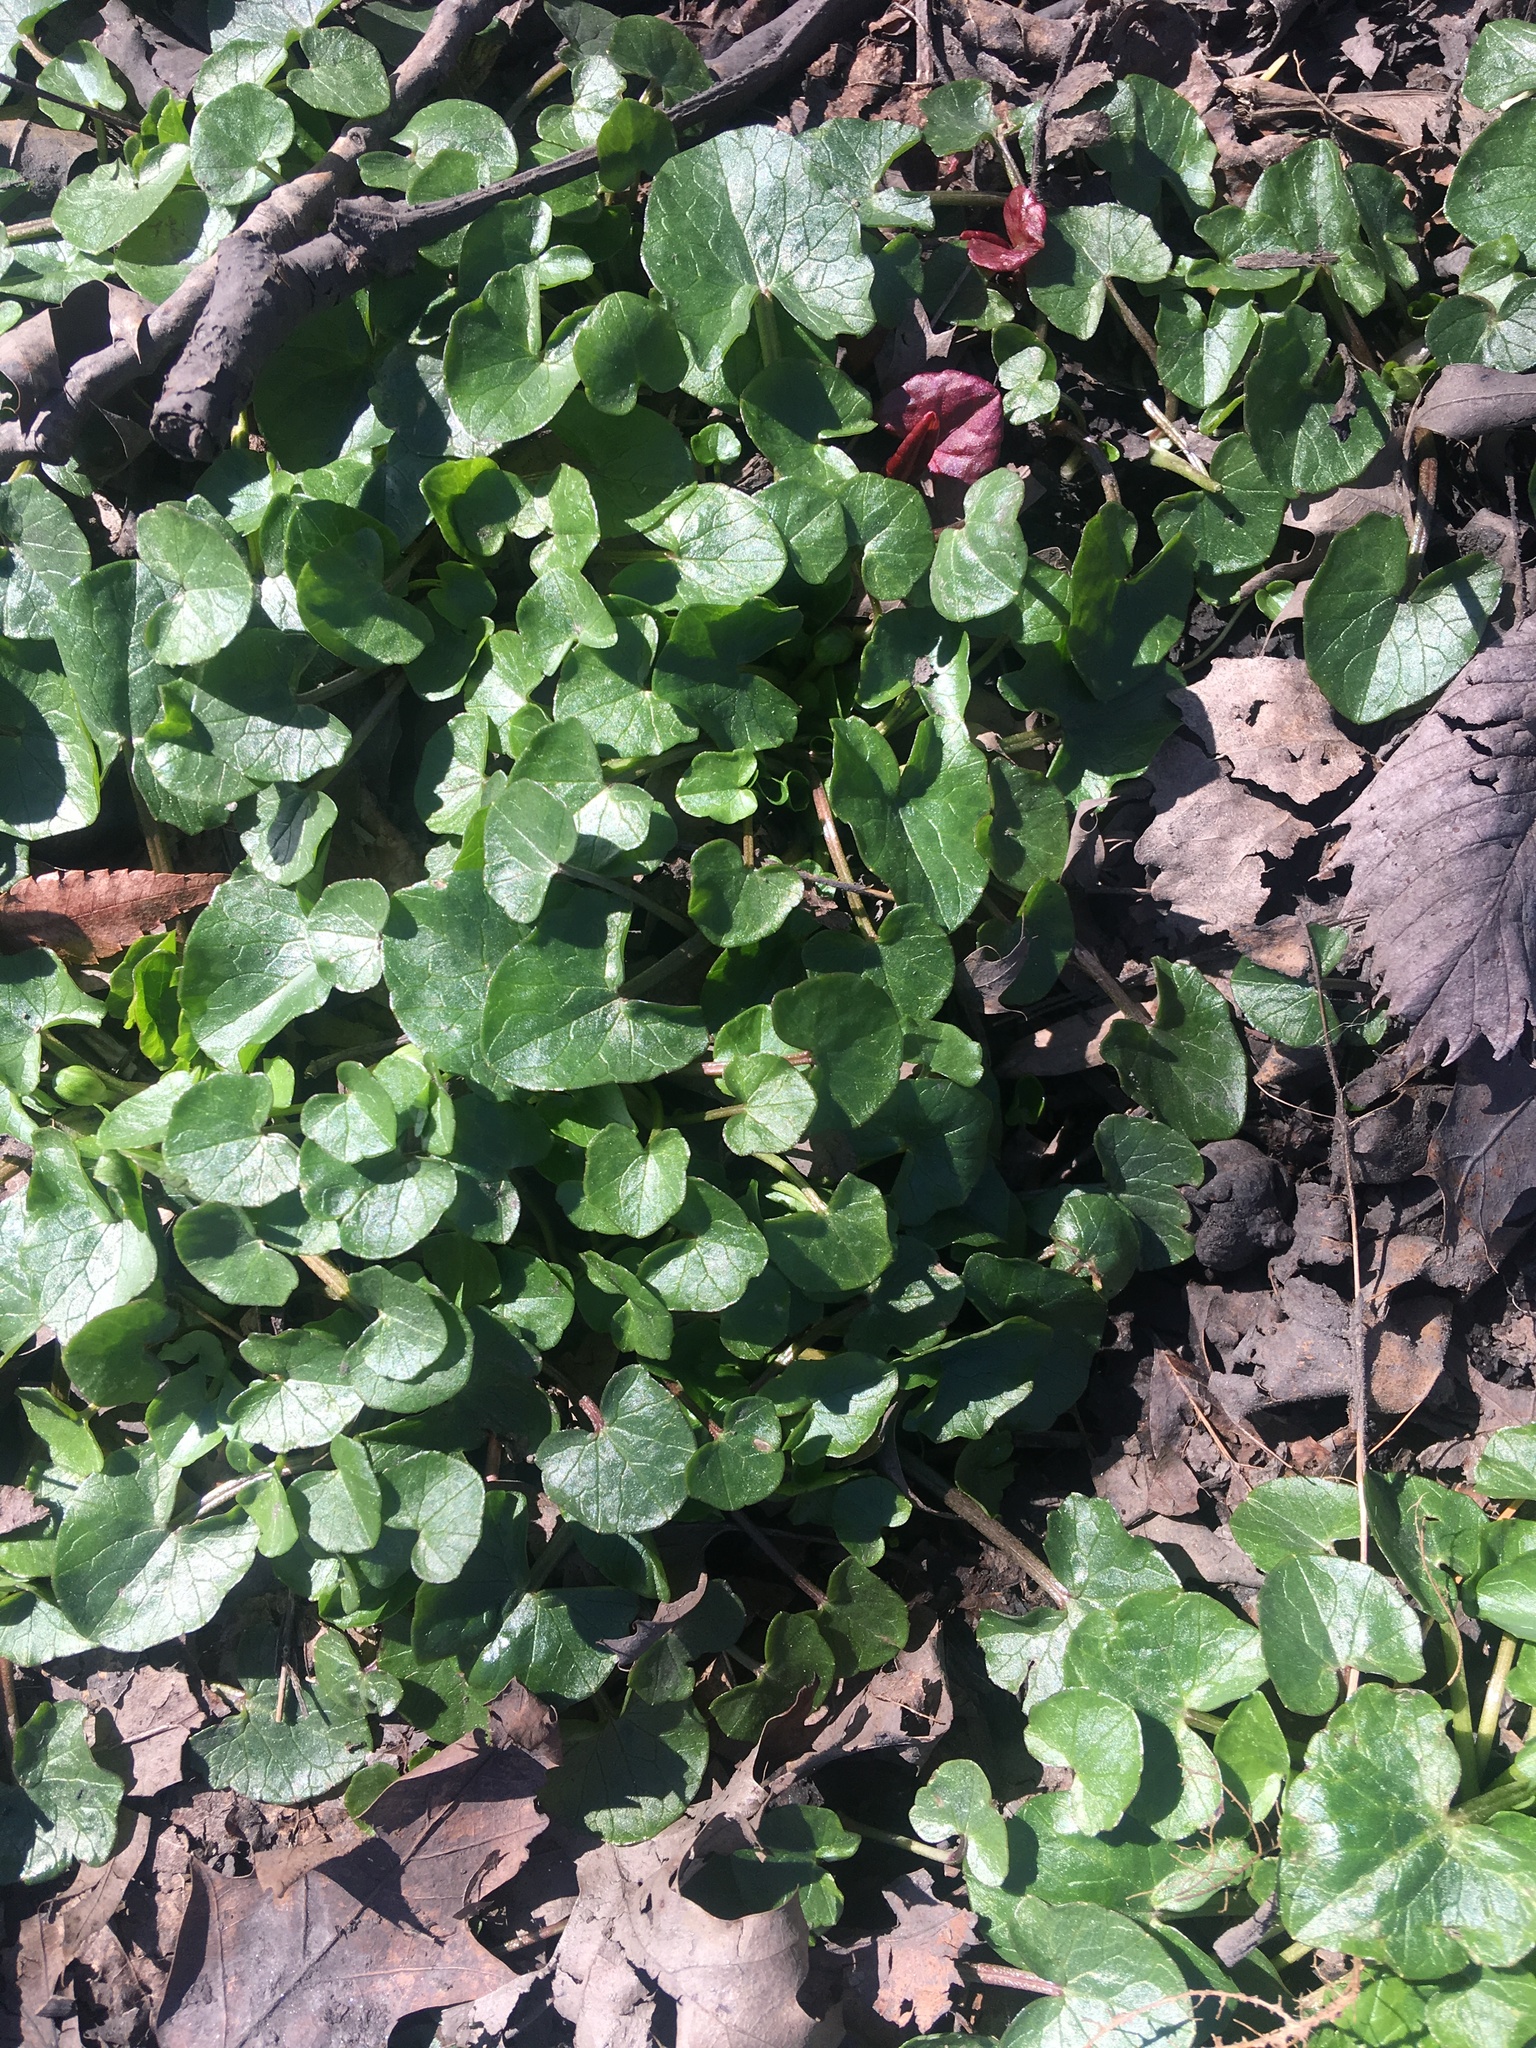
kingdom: Plantae
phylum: Tracheophyta
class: Magnoliopsida
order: Ranunculales
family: Ranunculaceae
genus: Ficaria
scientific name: Ficaria verna
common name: Lesser celandine
